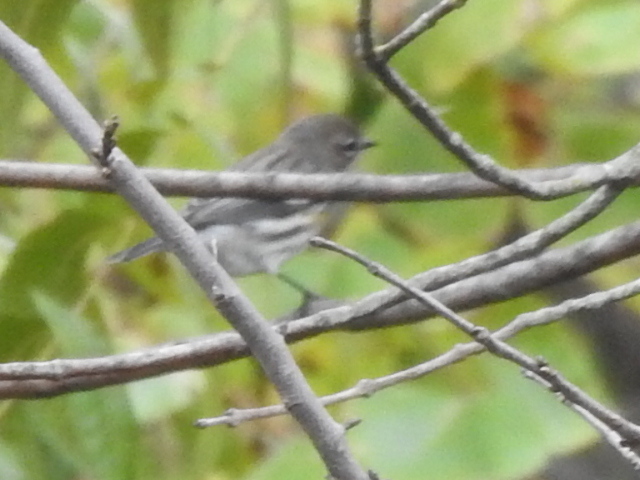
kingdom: Animalia
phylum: Chordata
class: Aves
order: Passeriformes
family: Parulidae
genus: Setophaga
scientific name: Setophaga coronata
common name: Myrtle warbler
